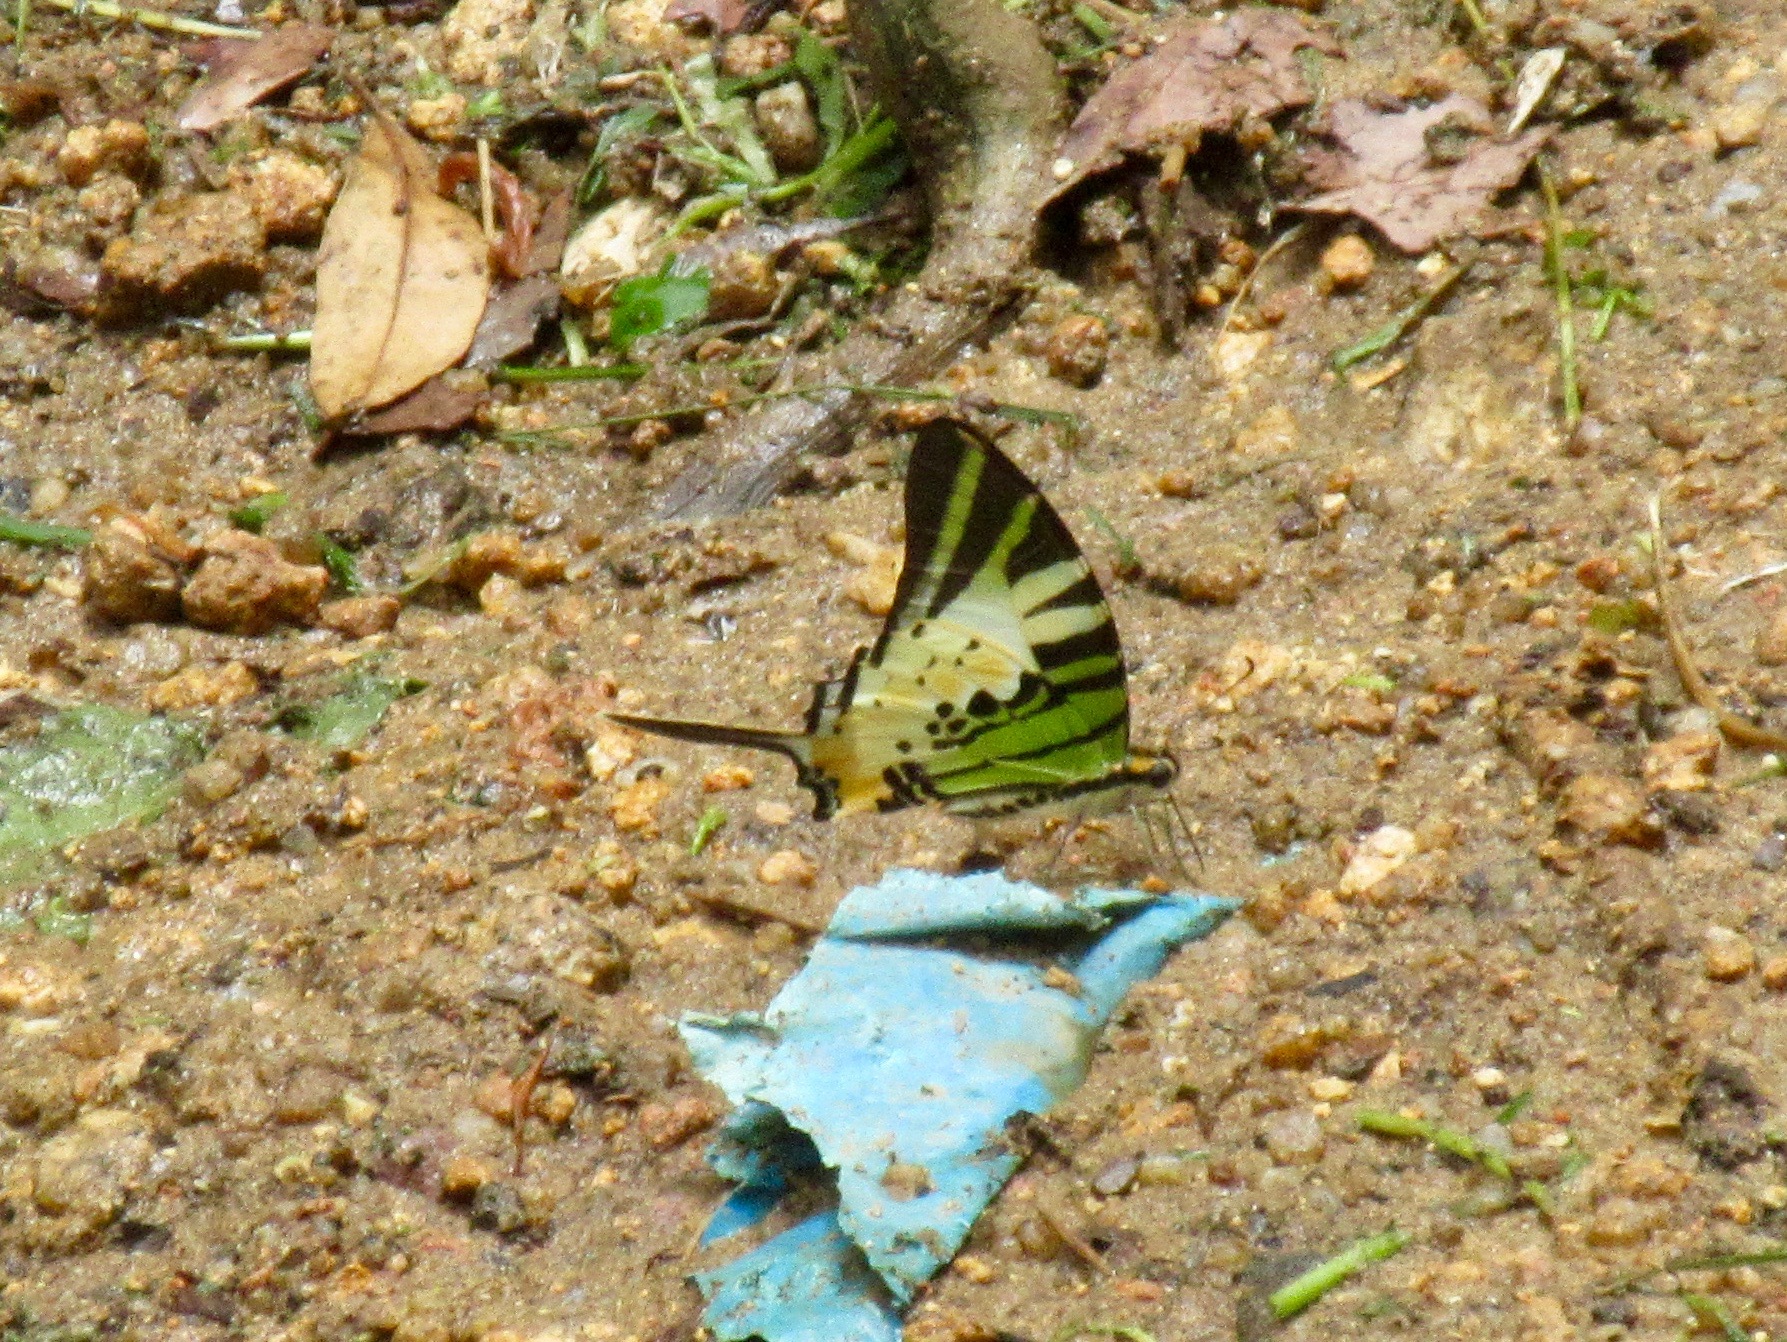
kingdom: Animalia
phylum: Arthropoda
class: Insecta
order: Lepidoptera
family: Papilionidae
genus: Graphium
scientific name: Graphium antiphates
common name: Fivebar swordtail
